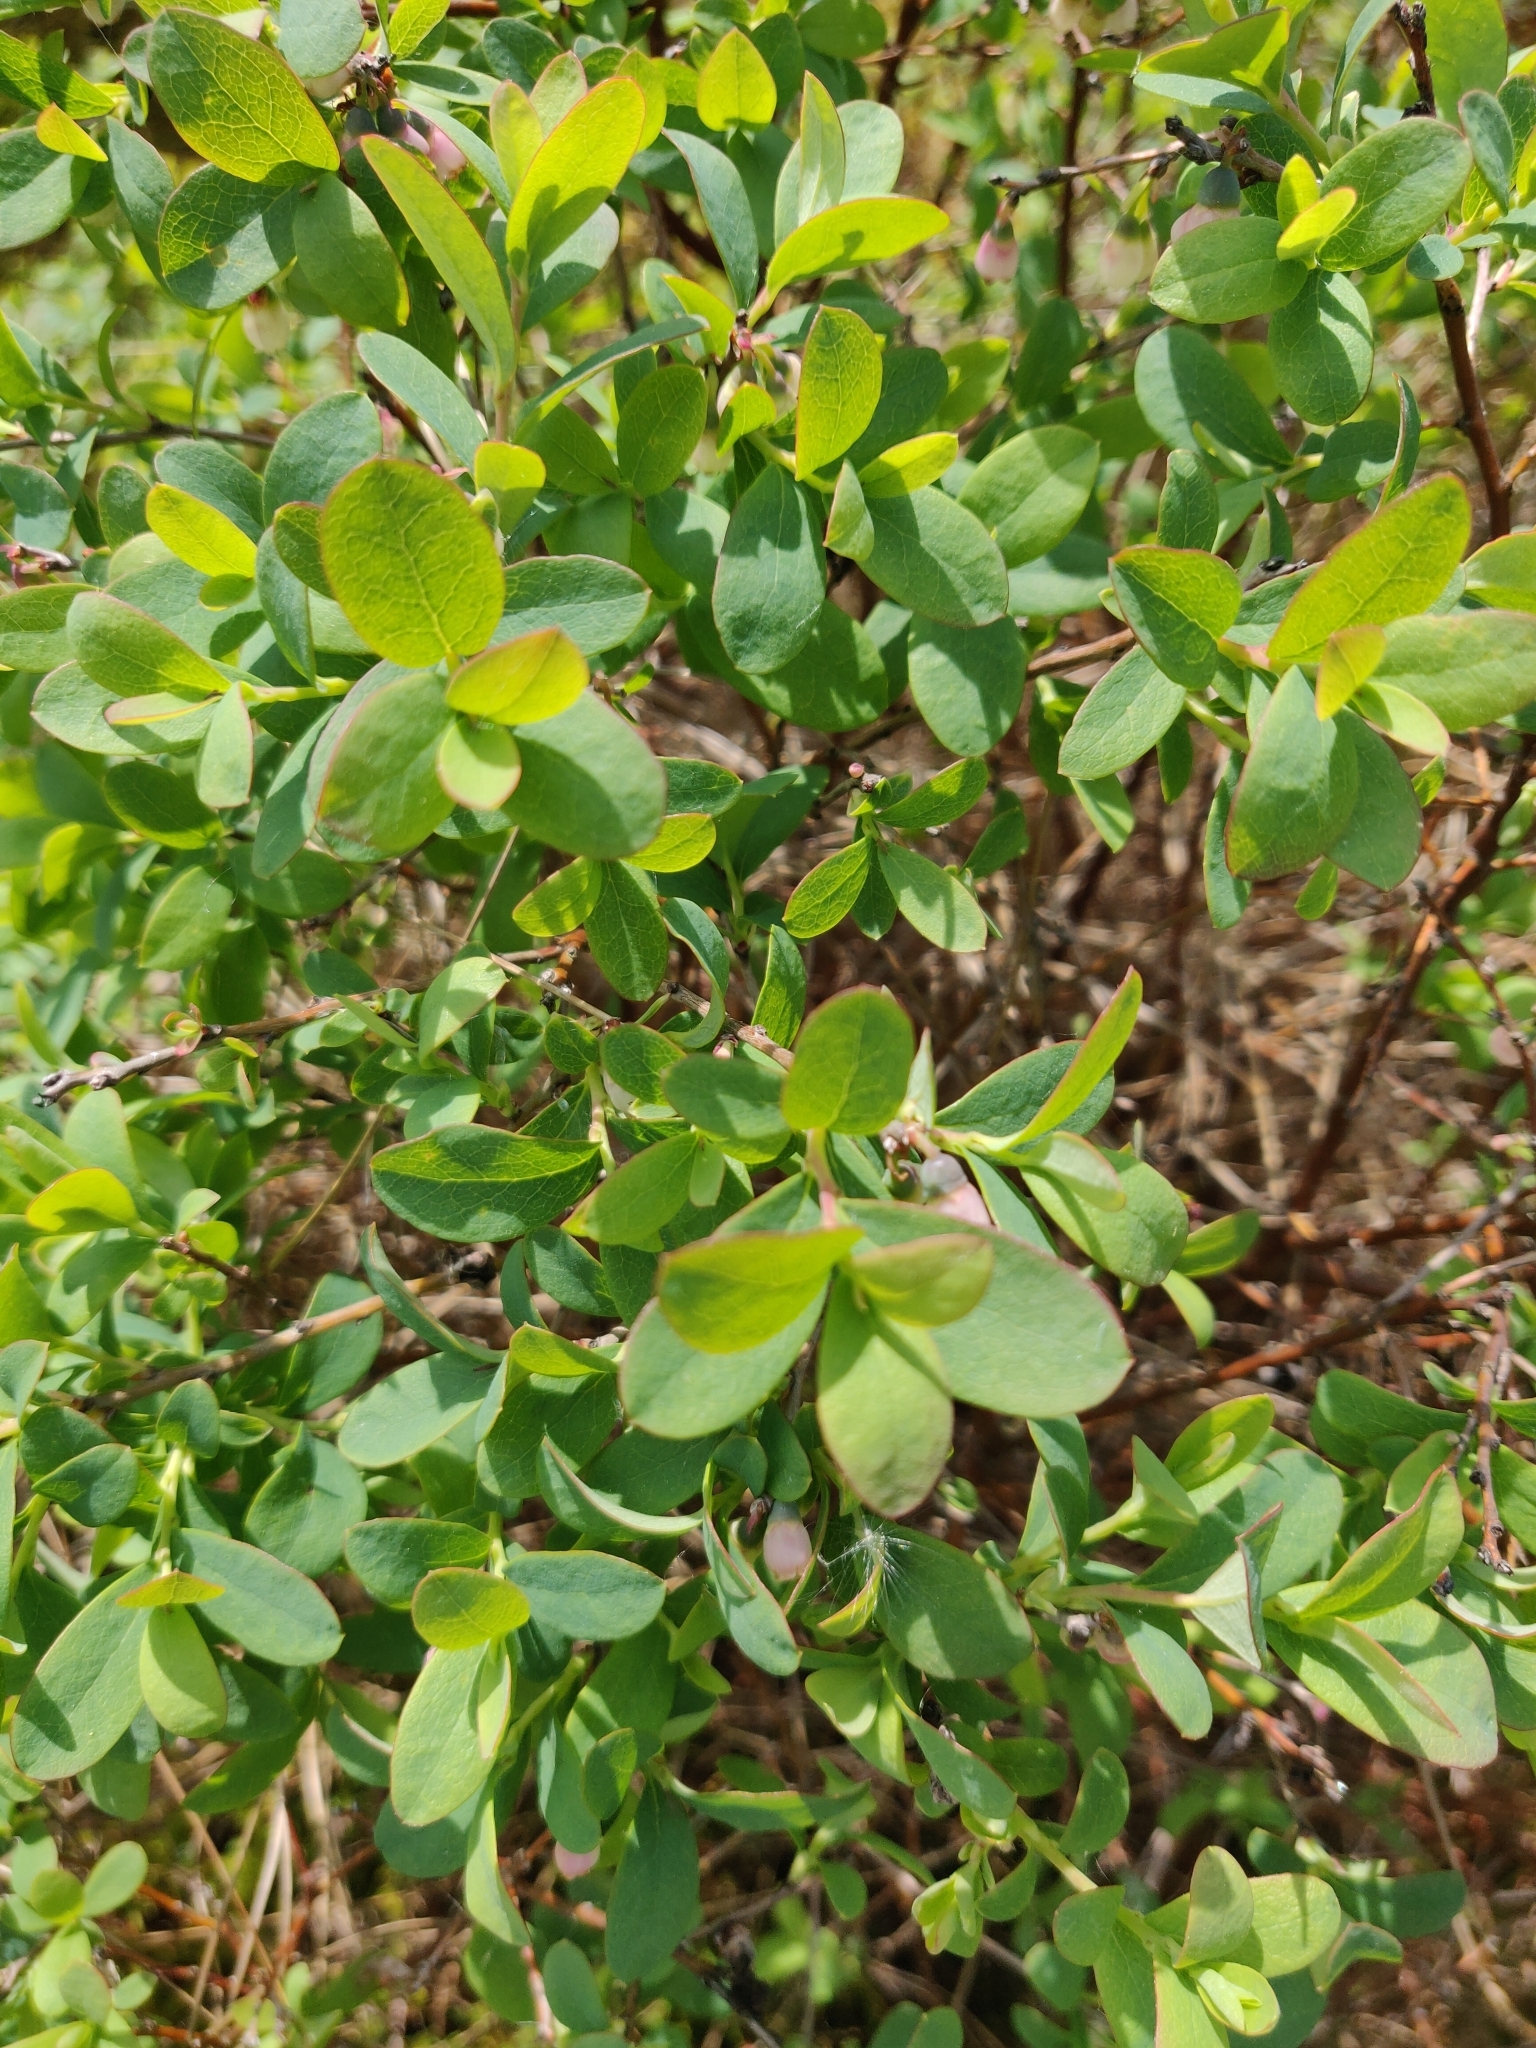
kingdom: Plantae
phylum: Tracheophyta
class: Magnoliopsida
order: Ericales
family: Ericaceae
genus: Vaccinium
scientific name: Vaccinium uliginosum
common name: Bog bilberry
